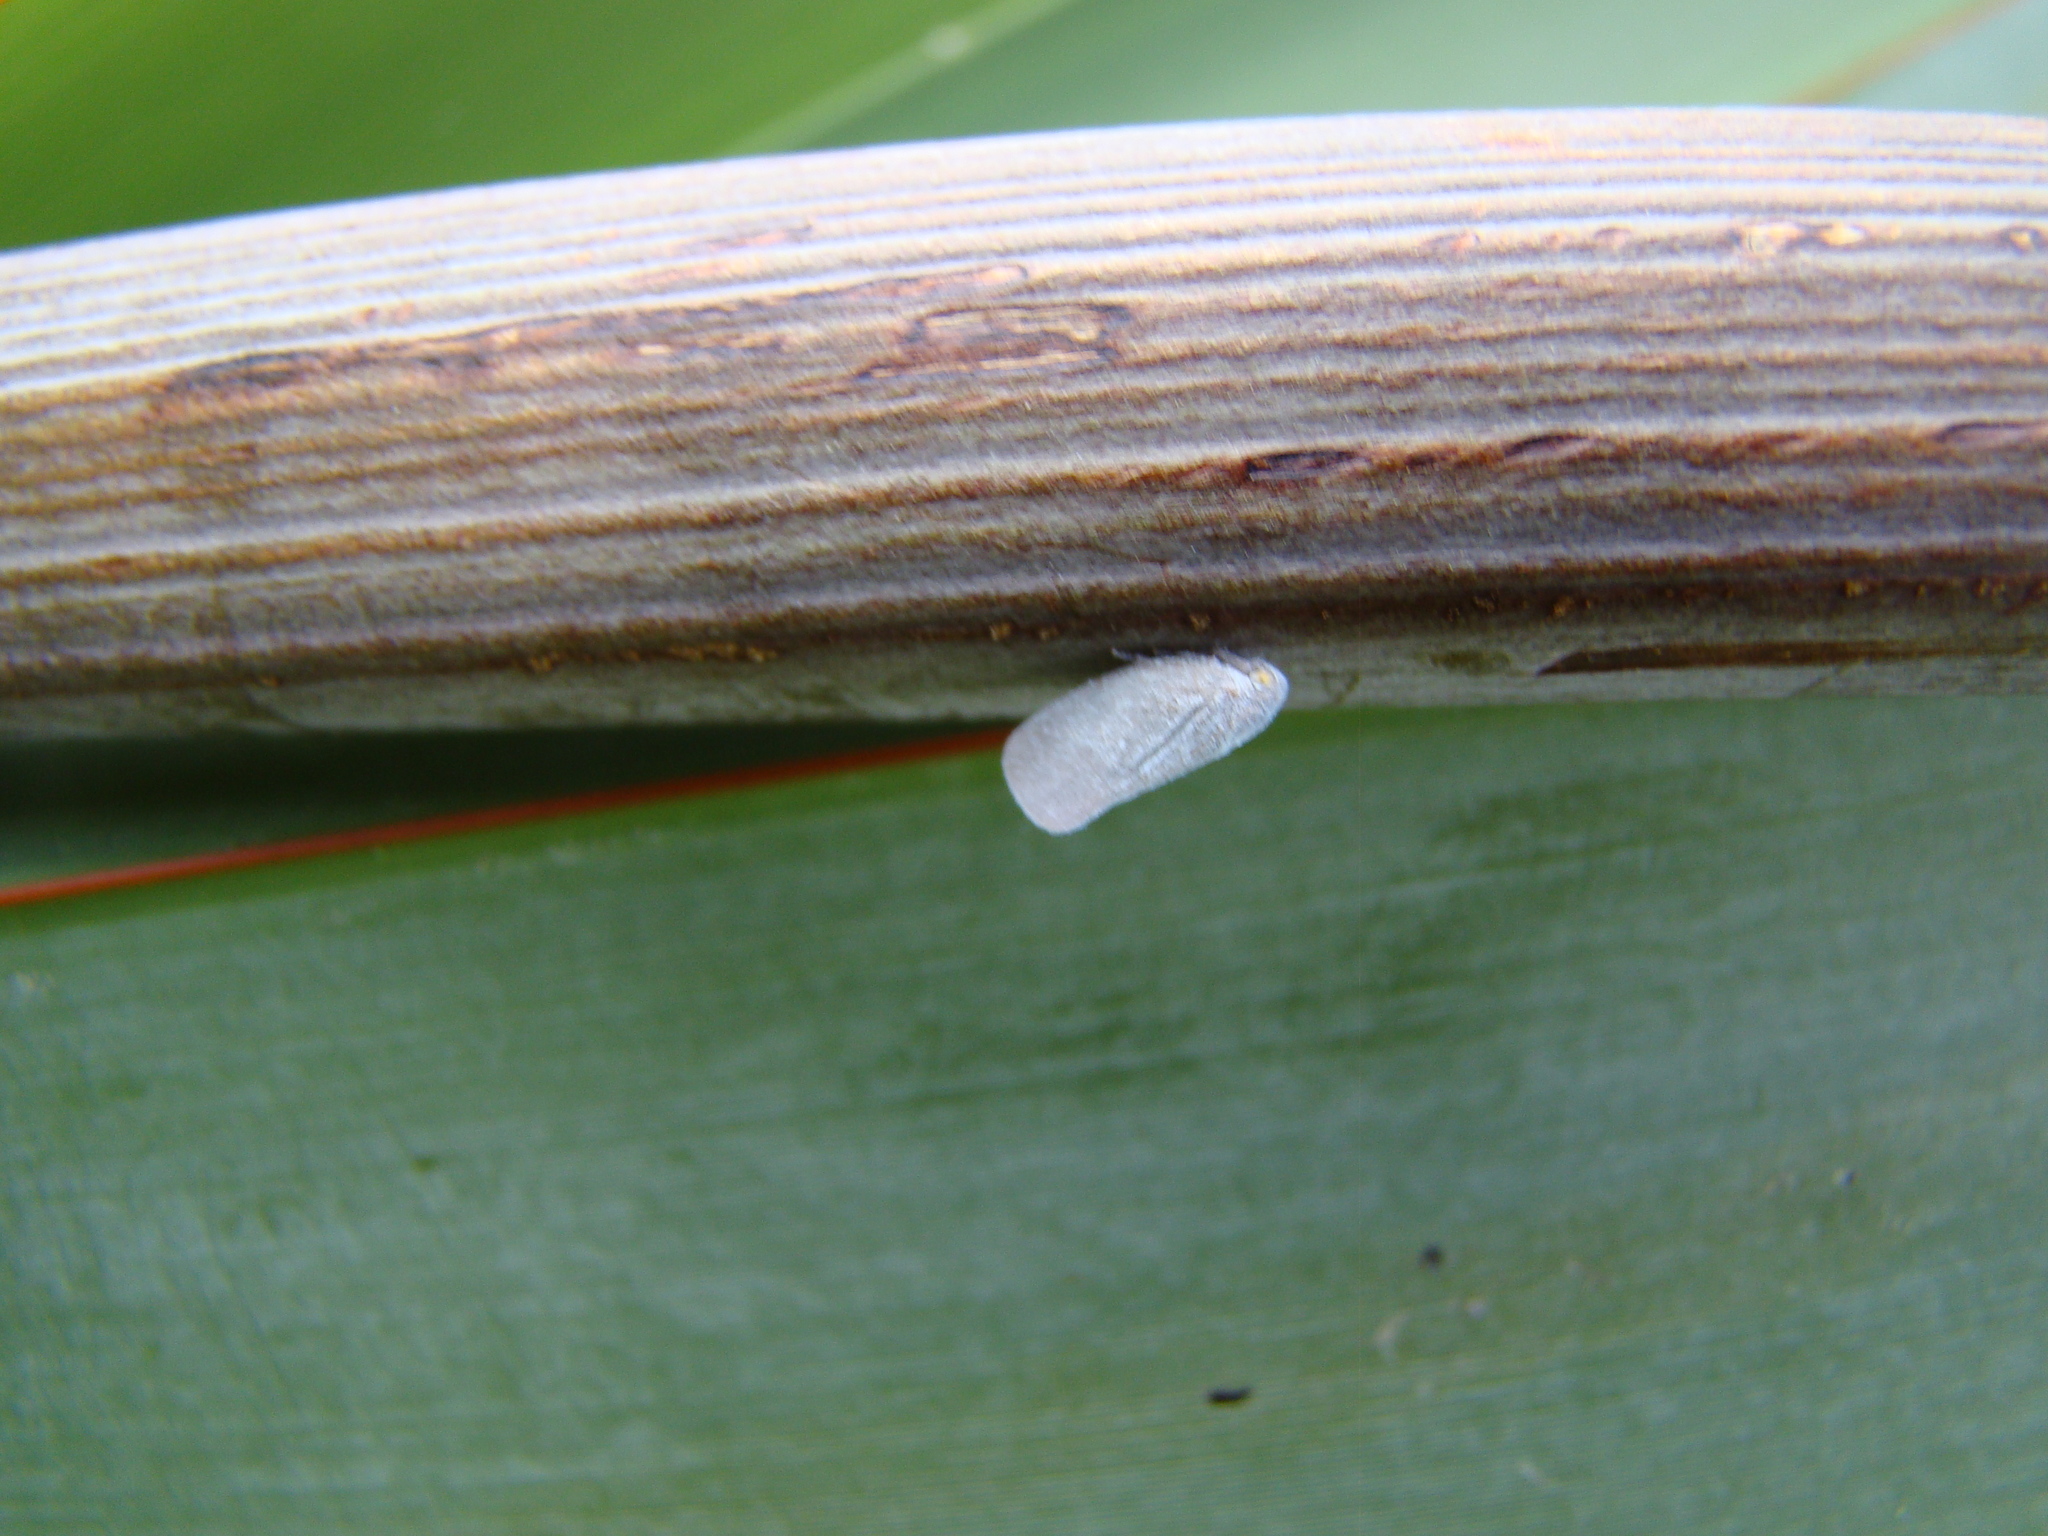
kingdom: Animalia
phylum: Arthropoda
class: Insecta
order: Hemiptera
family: Flatidae
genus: Anzora
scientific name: Anzora unicolor
